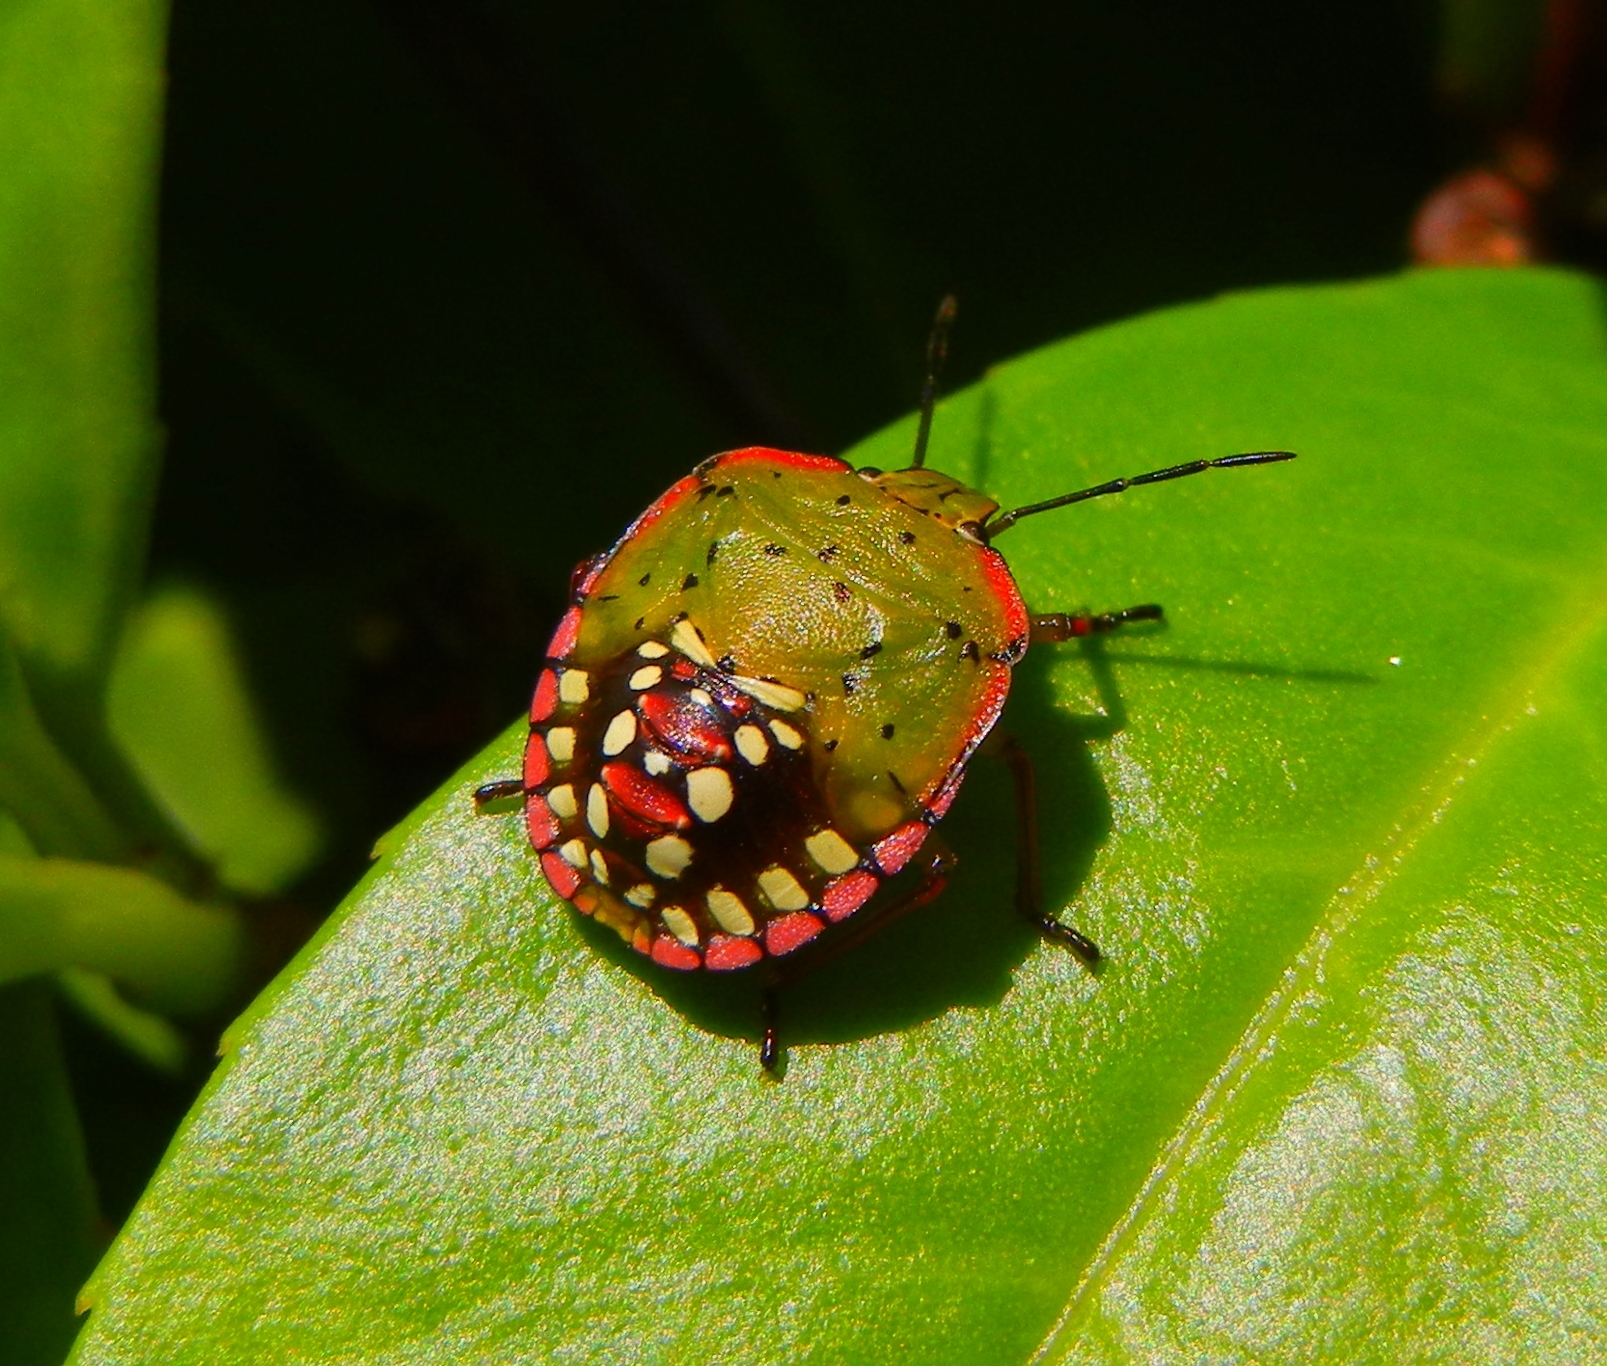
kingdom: Animalia
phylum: Arthropoda
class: Insecta
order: Hemiptera
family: Pentatomidae
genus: Nezara
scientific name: Nezara viridula
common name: Southern green stink bug
